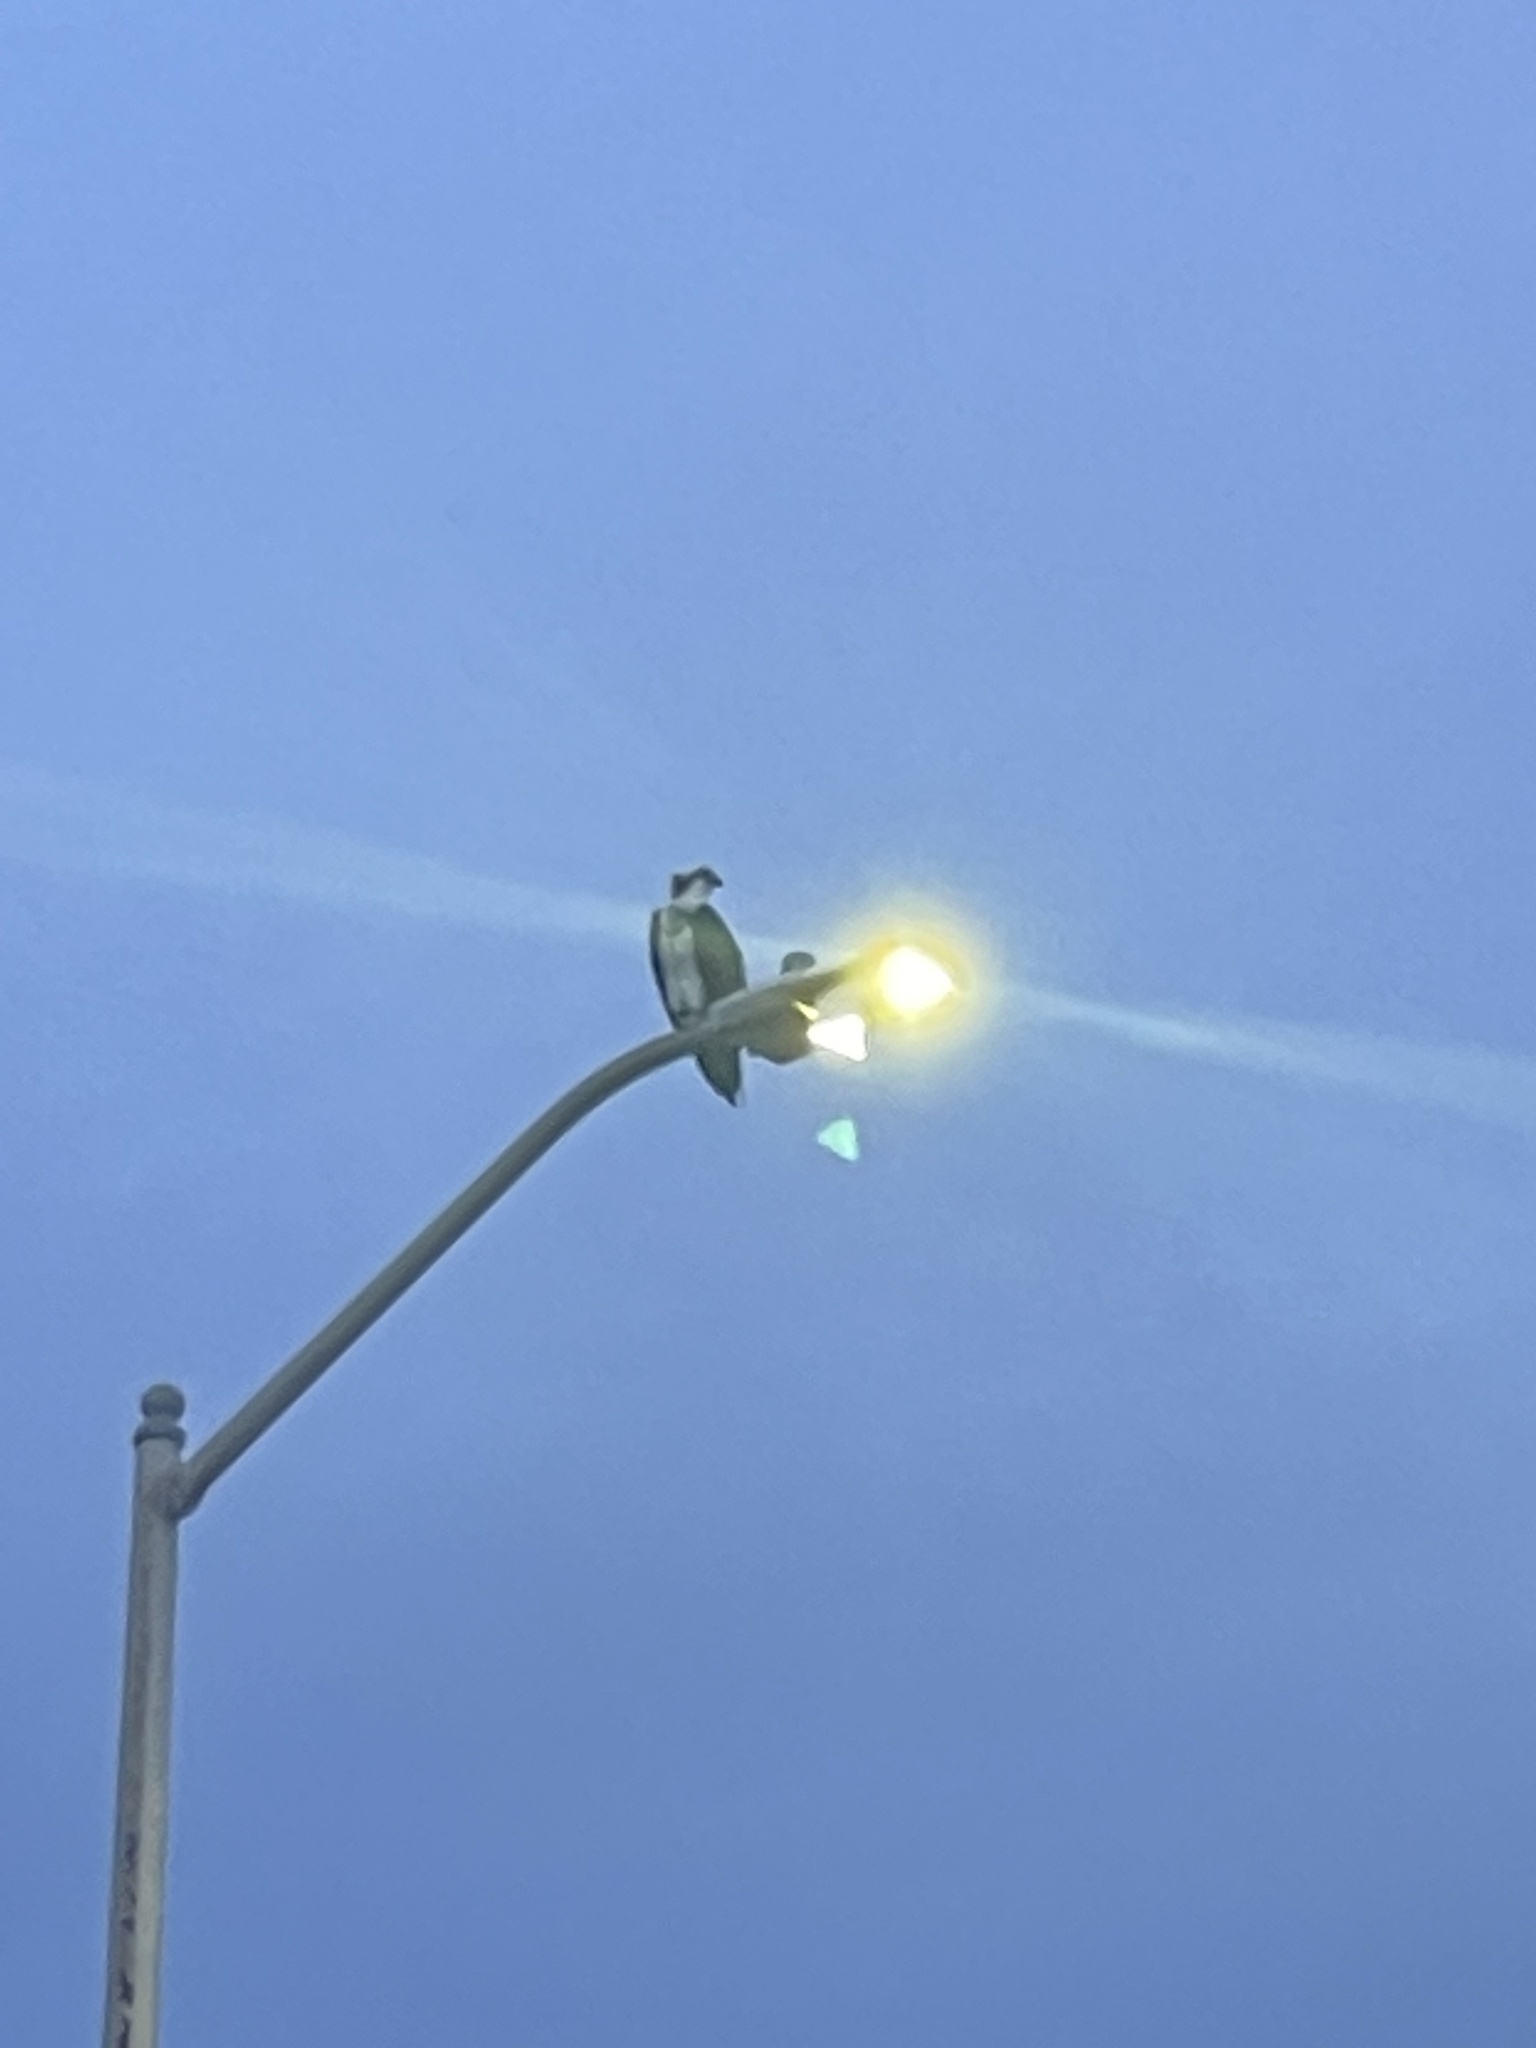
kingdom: Animalia
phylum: Chordata
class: Aves
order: Accipitriformes
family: Pandionidae
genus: Pandion
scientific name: Pandion haliaetus
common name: Osprey
